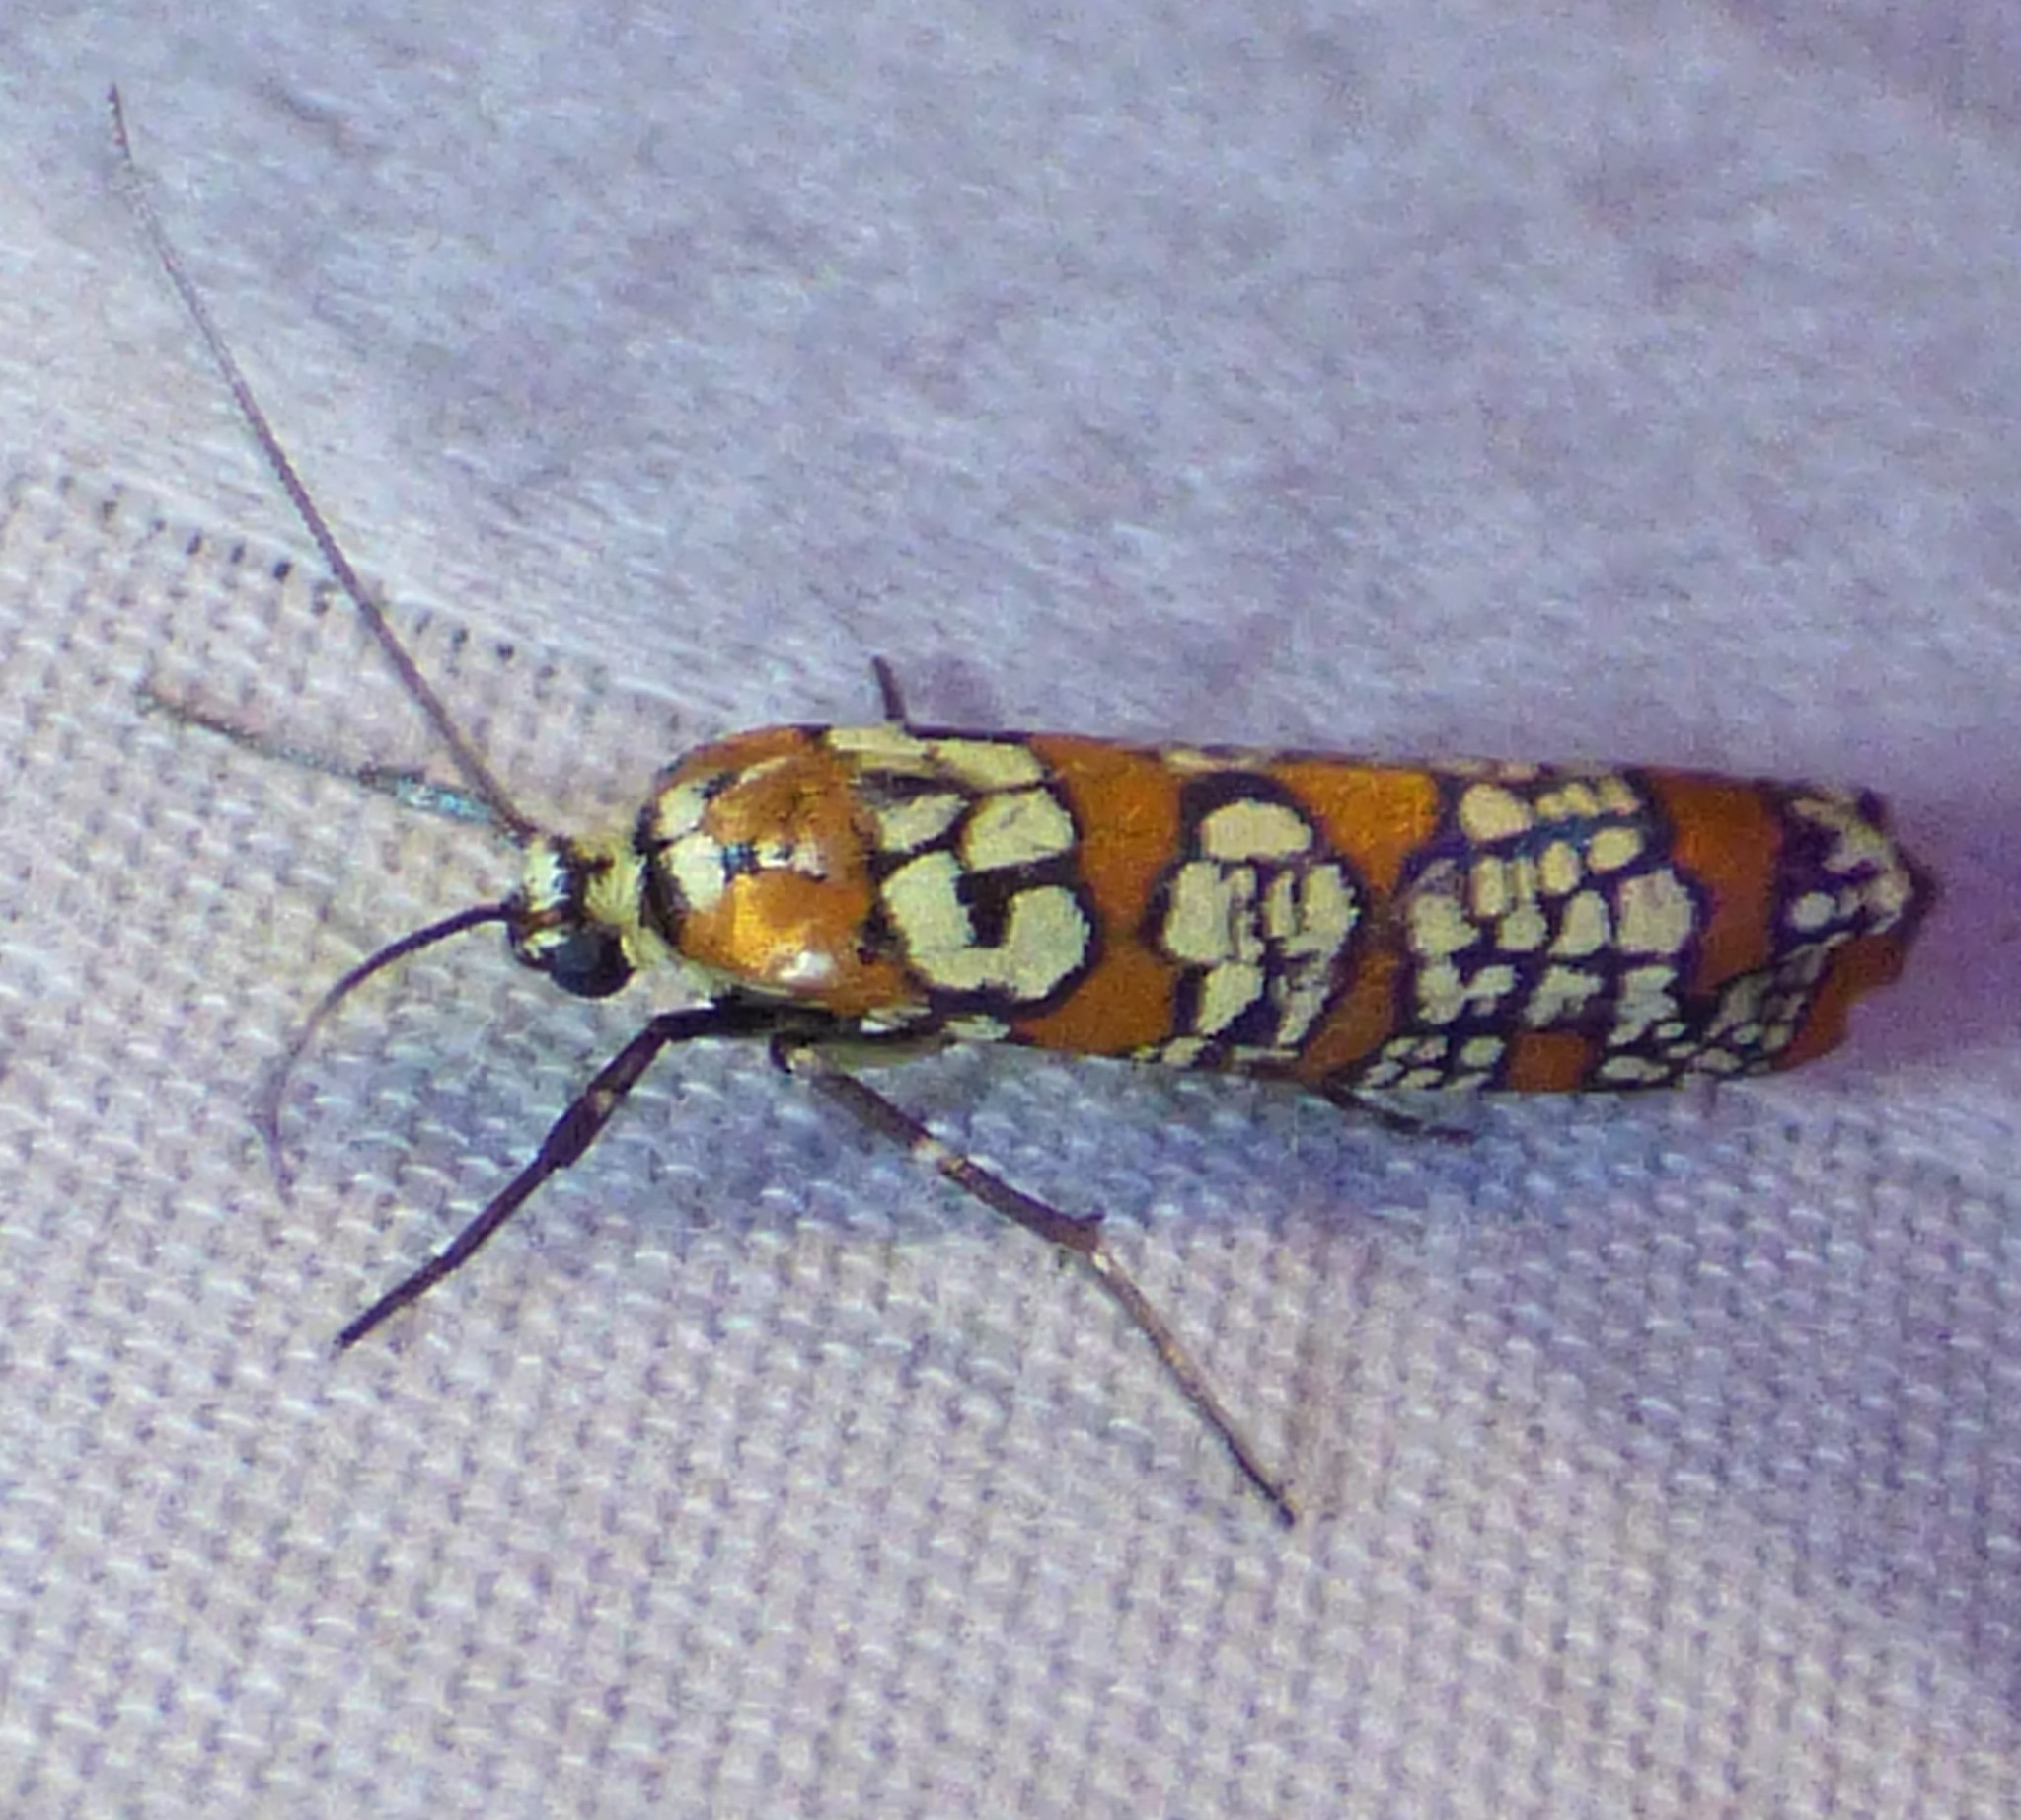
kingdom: Animalia
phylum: Arthropoda
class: Insecta
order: Lepidoptera
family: Attevidae
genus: Atteva
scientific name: Atteva punctella
